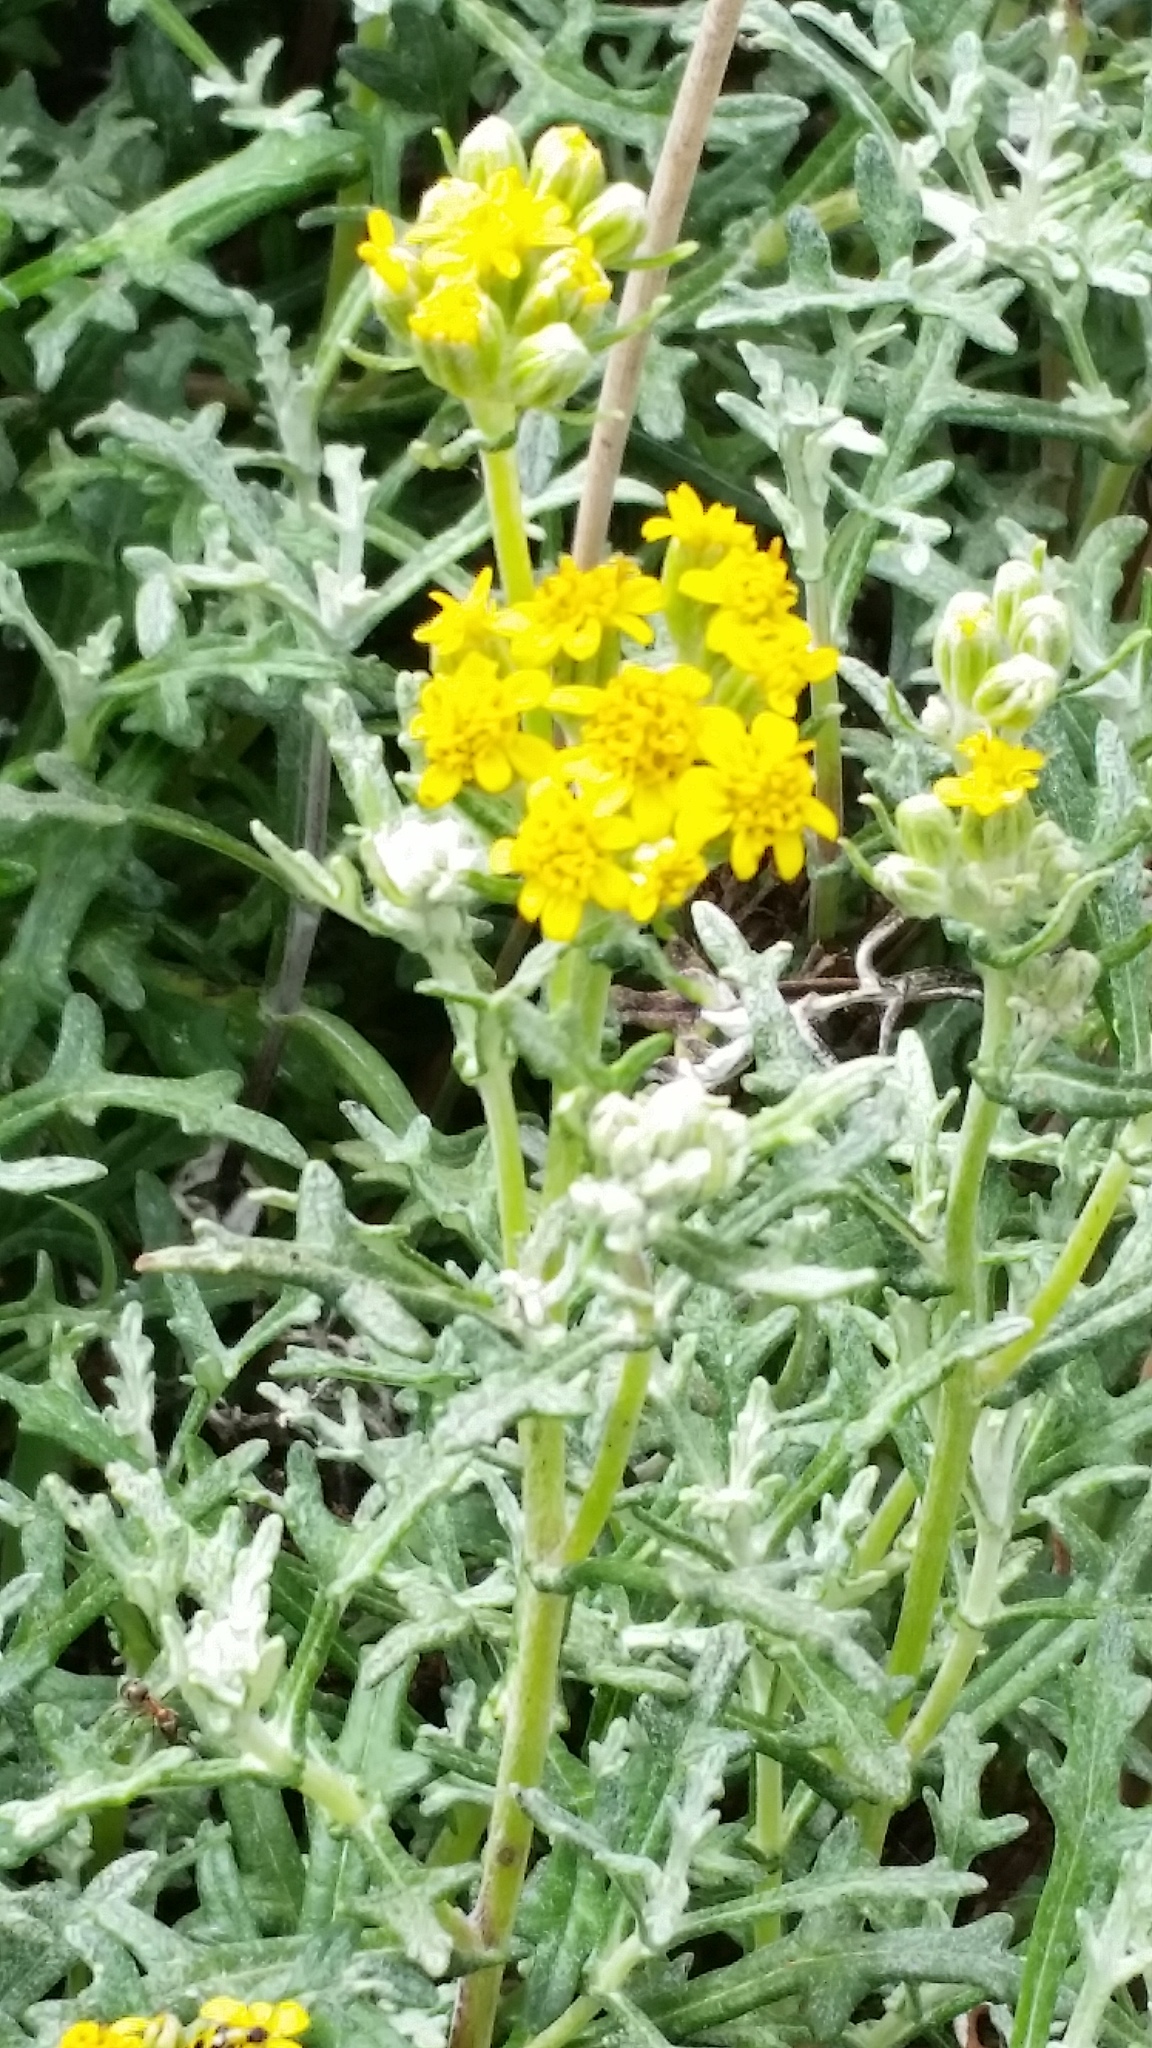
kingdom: Plantae
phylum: Tracheophyta
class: Magnoliopsida
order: Asterales
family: Asteraceae
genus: Eriophyllum
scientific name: Eriophyllum staechadifolium
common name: Lizardtail
